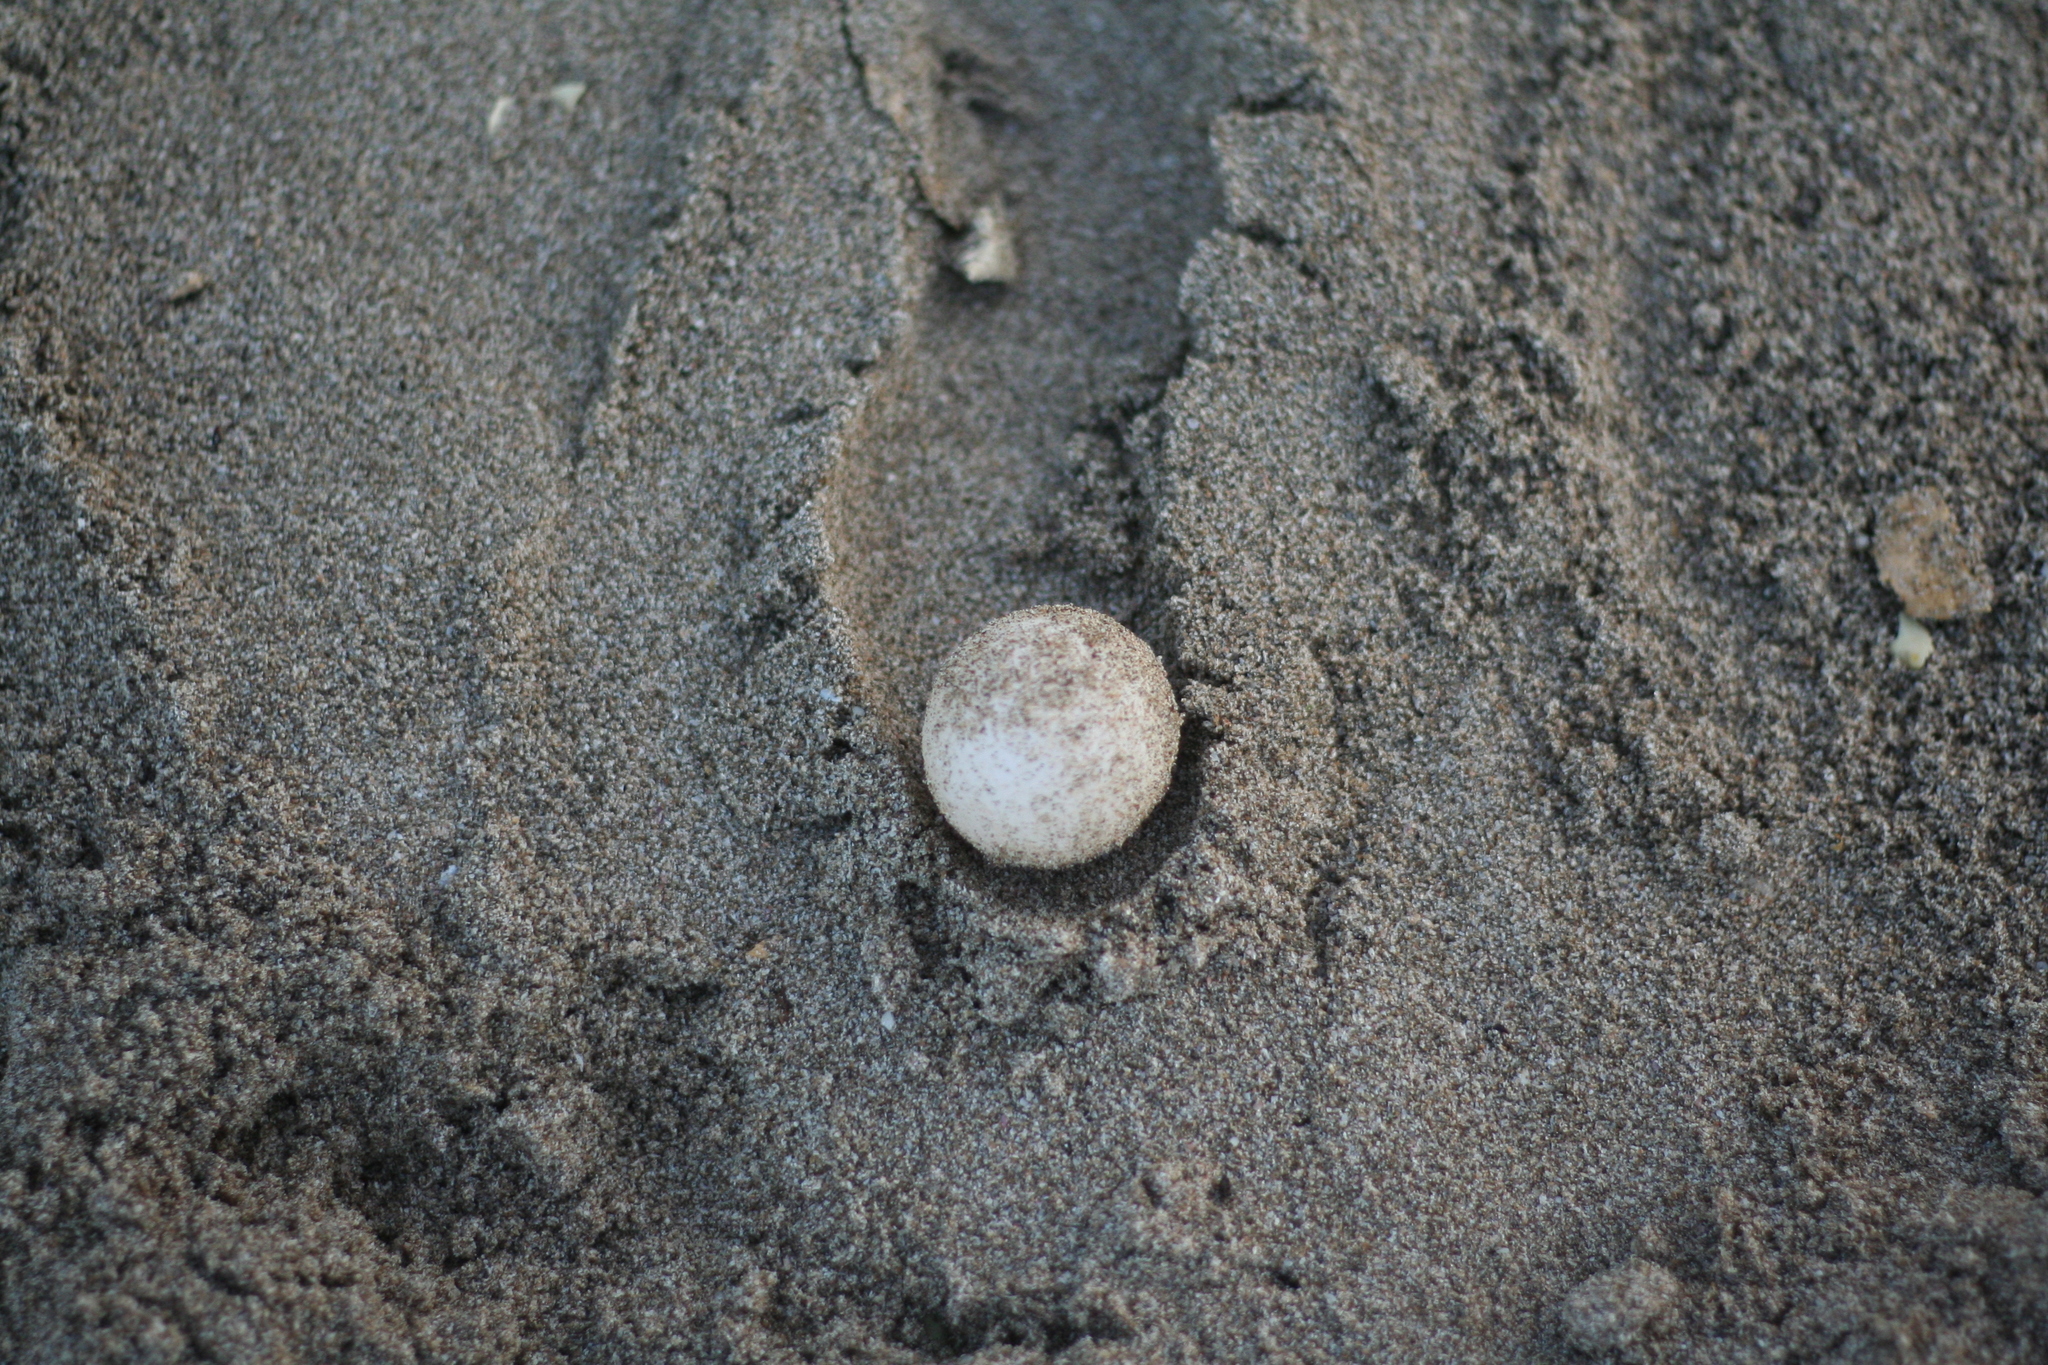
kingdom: Animalia
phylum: Chordata
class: Testudines
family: Cheloniidae
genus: Lepidochelys
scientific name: Lepidochelys olivacea
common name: Olive ridley
